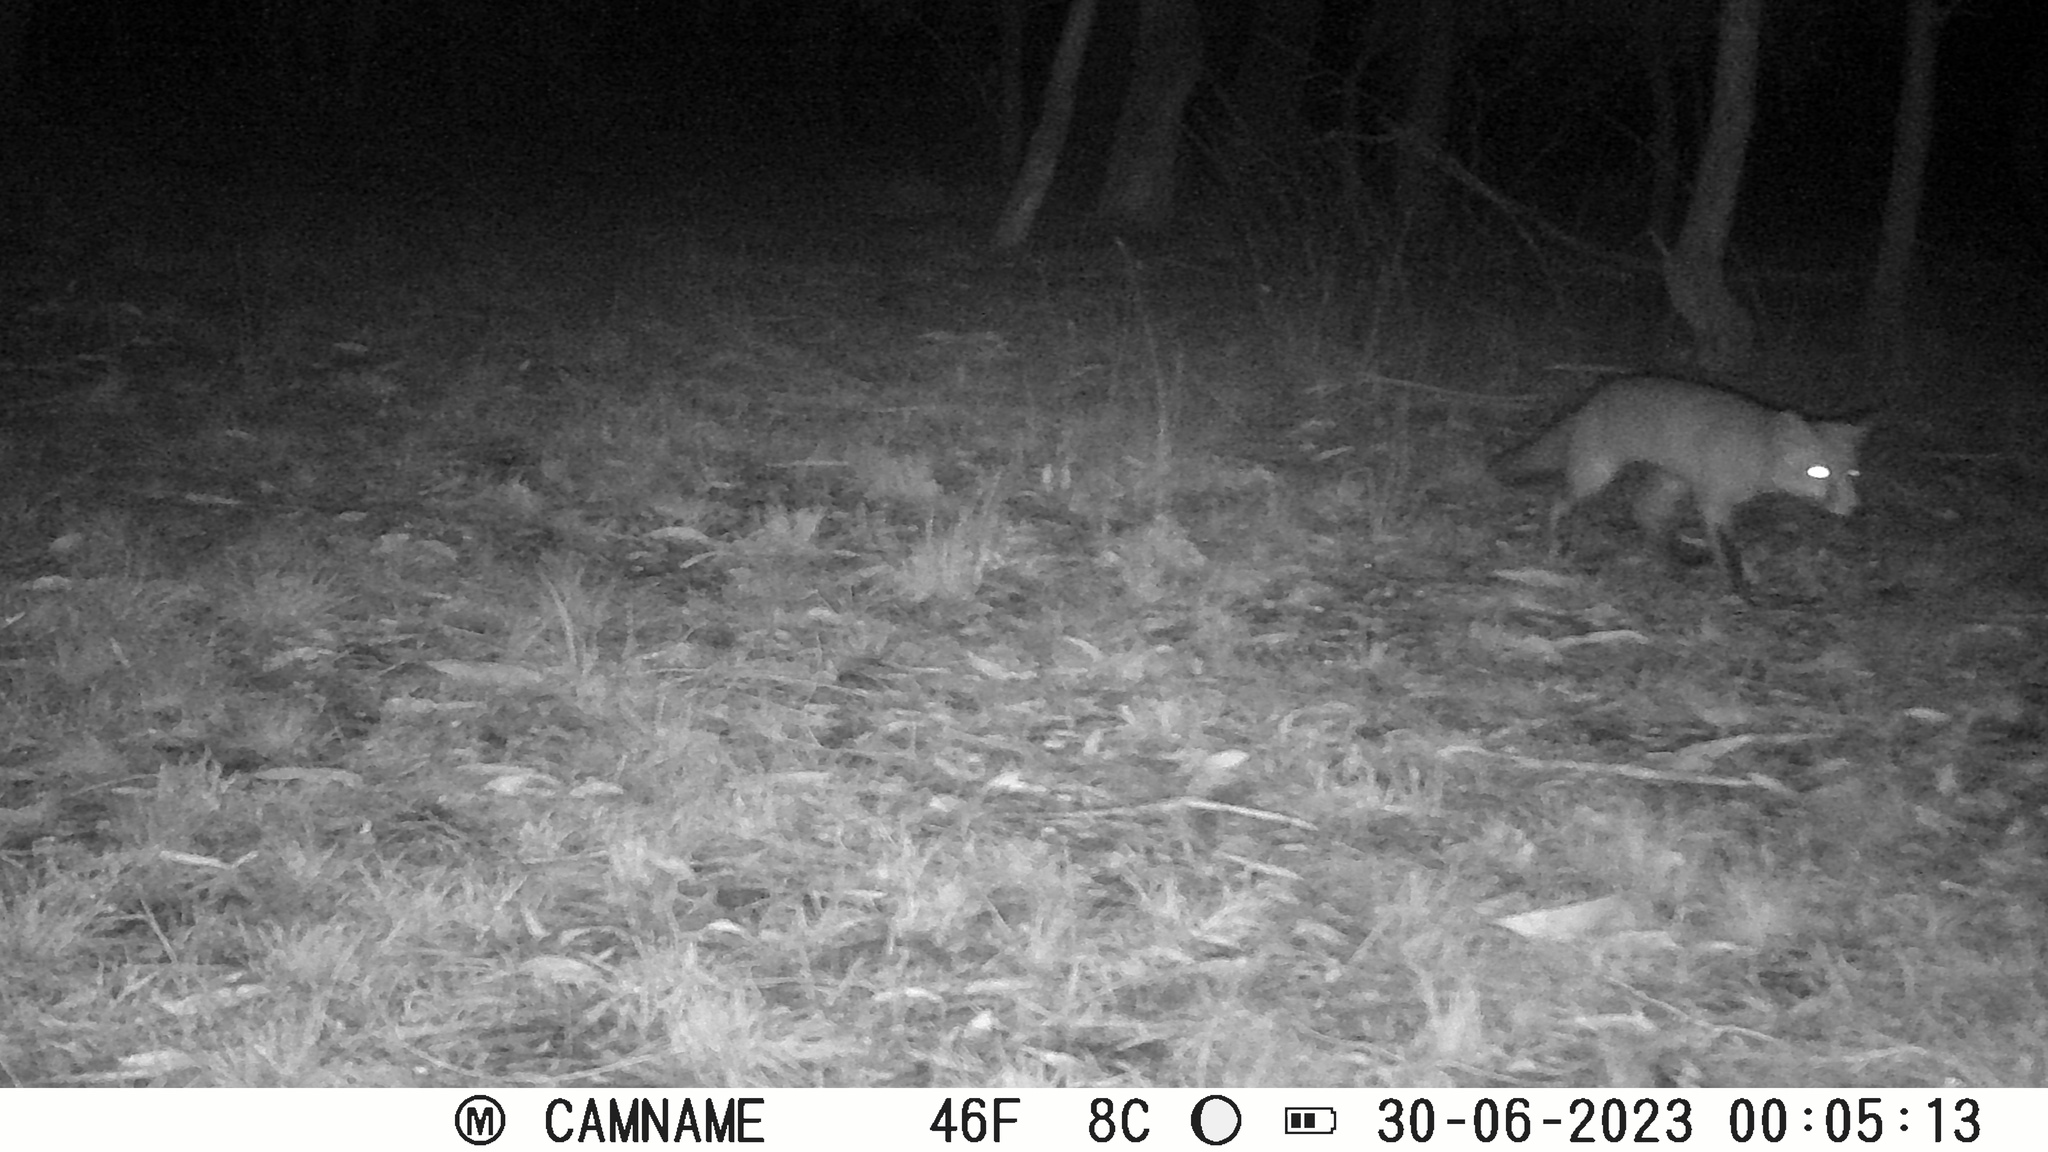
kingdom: Animalia
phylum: Chordata
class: Mammalia
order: Carnivora
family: Canidae
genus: Vulpes
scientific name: Vulpes vulpes
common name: Red fox
